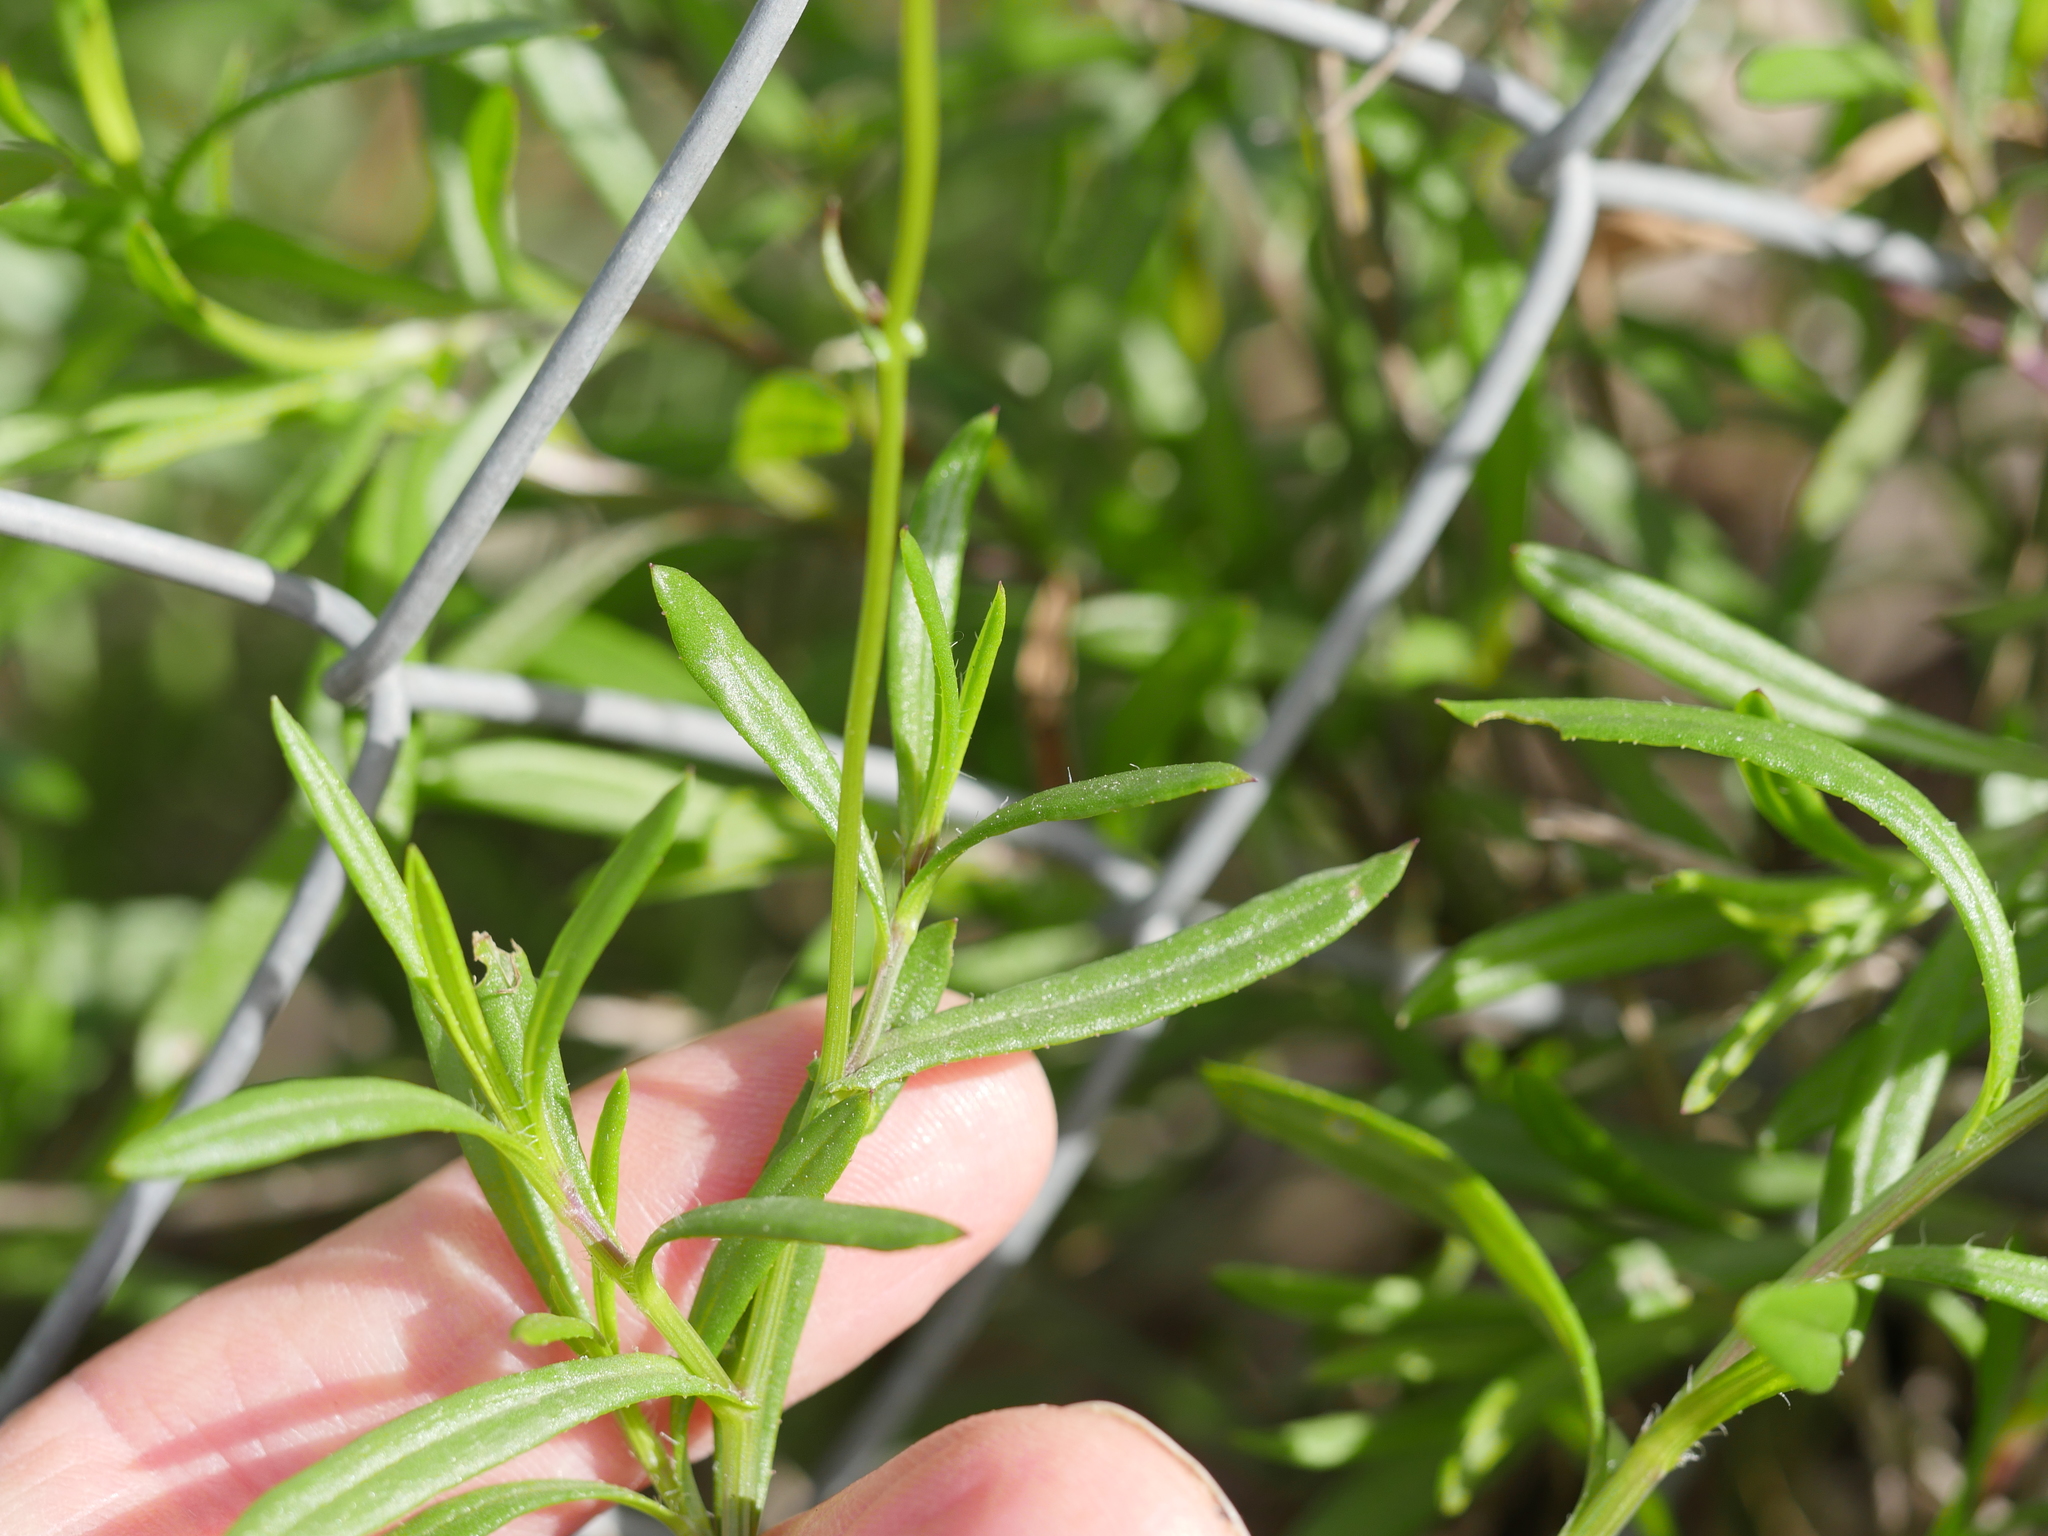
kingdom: Plantae
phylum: Tracheophyta
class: Magnoliopsida
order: Asterales
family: Asteraceae
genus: Senecio
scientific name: Senecio skirrhodon
